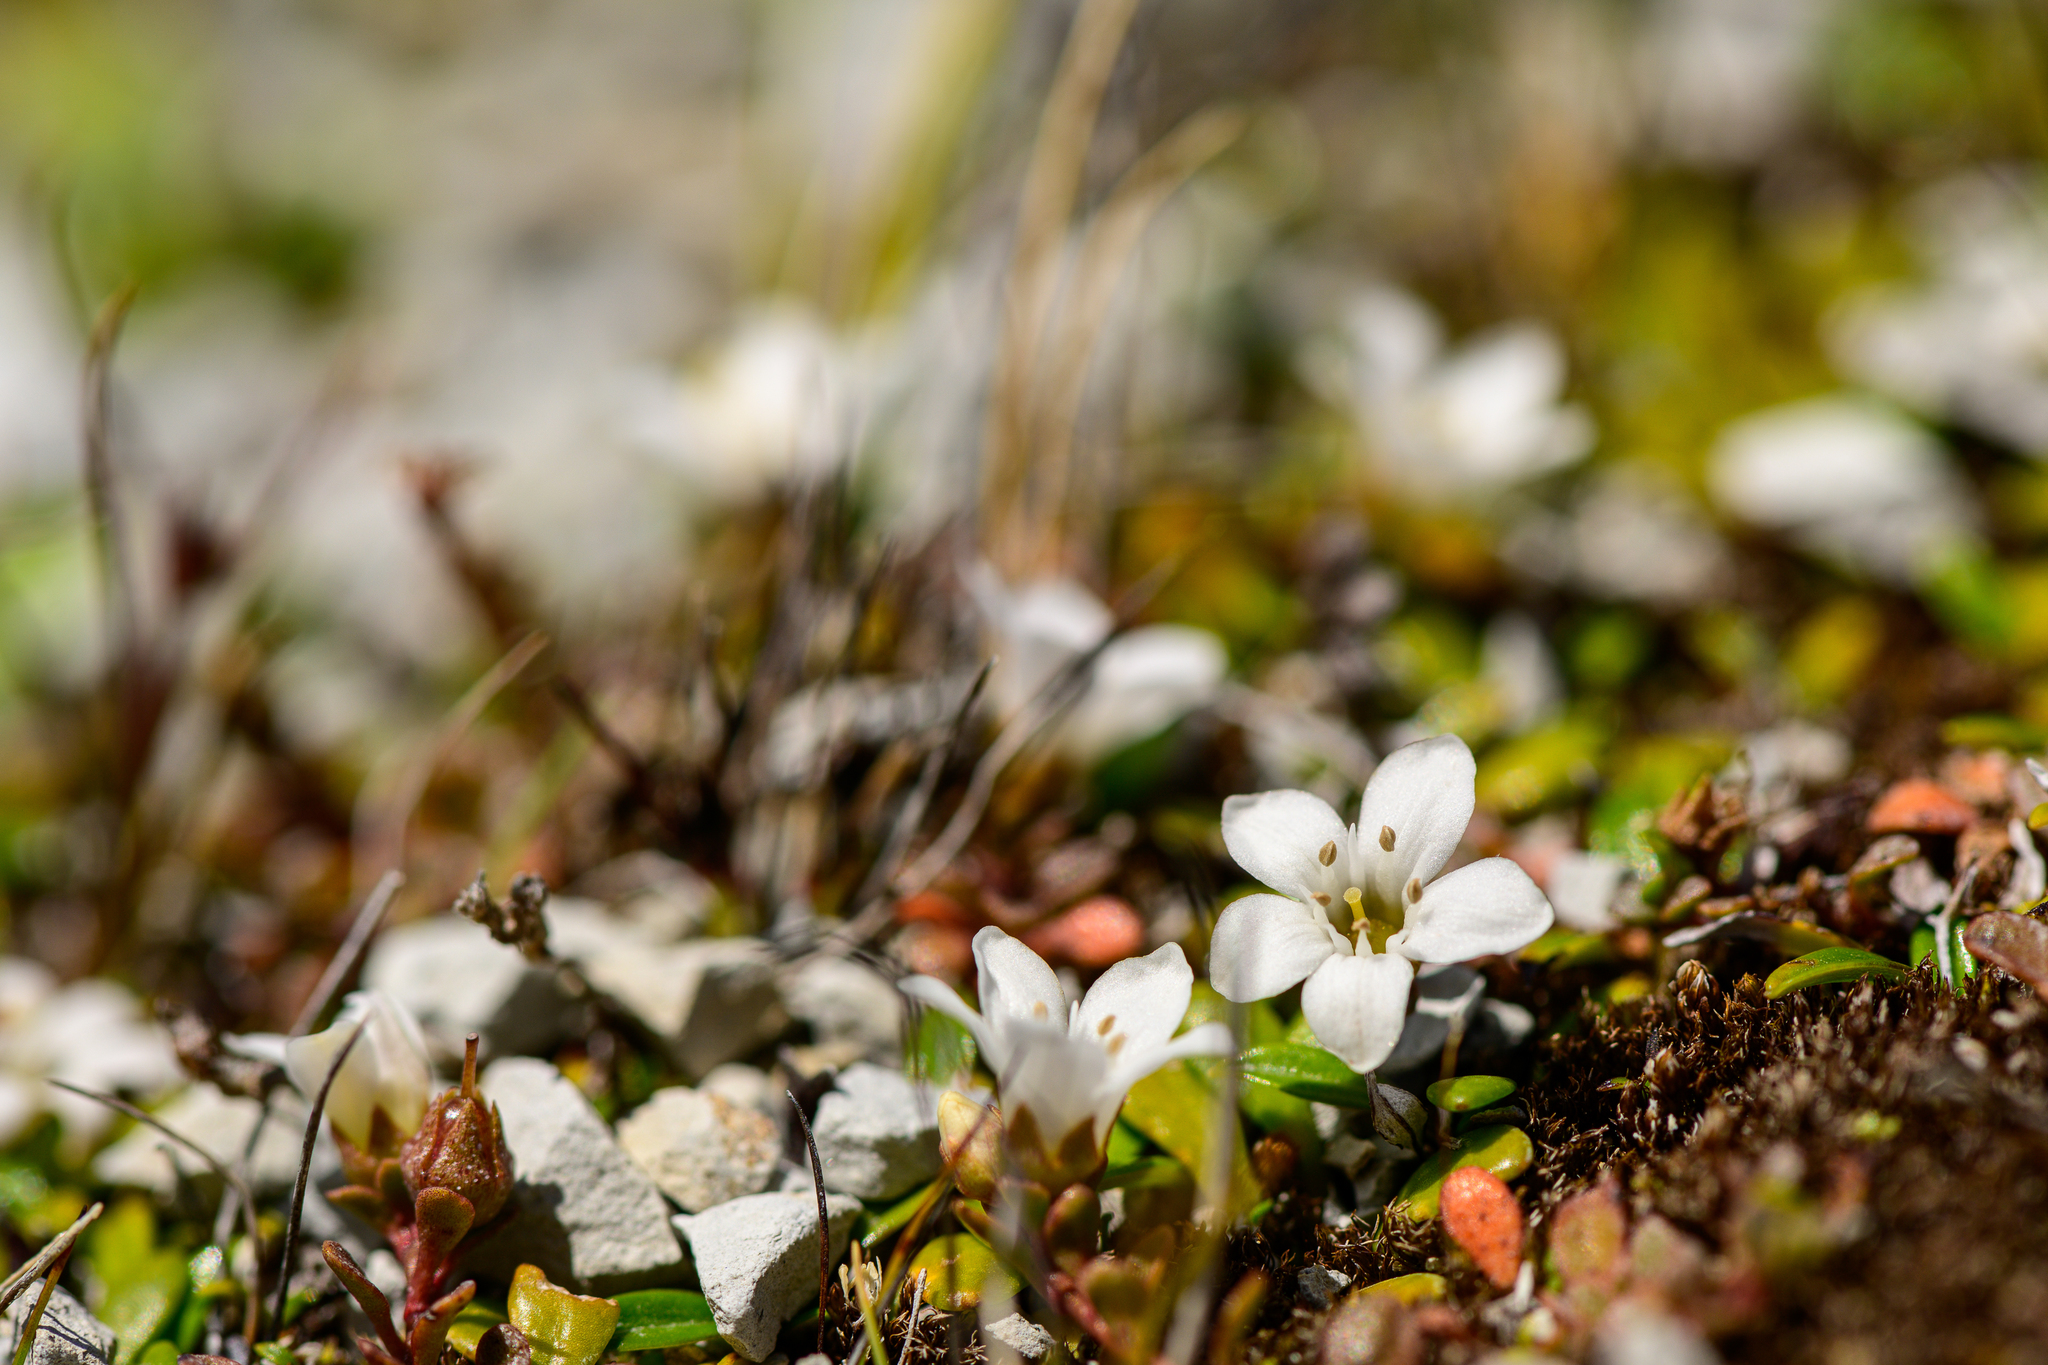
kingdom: Plantae
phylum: Tracheophyta
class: Magnoliopsida
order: Ericales
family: Primulaceae
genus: Samolus
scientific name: Samolus repens
